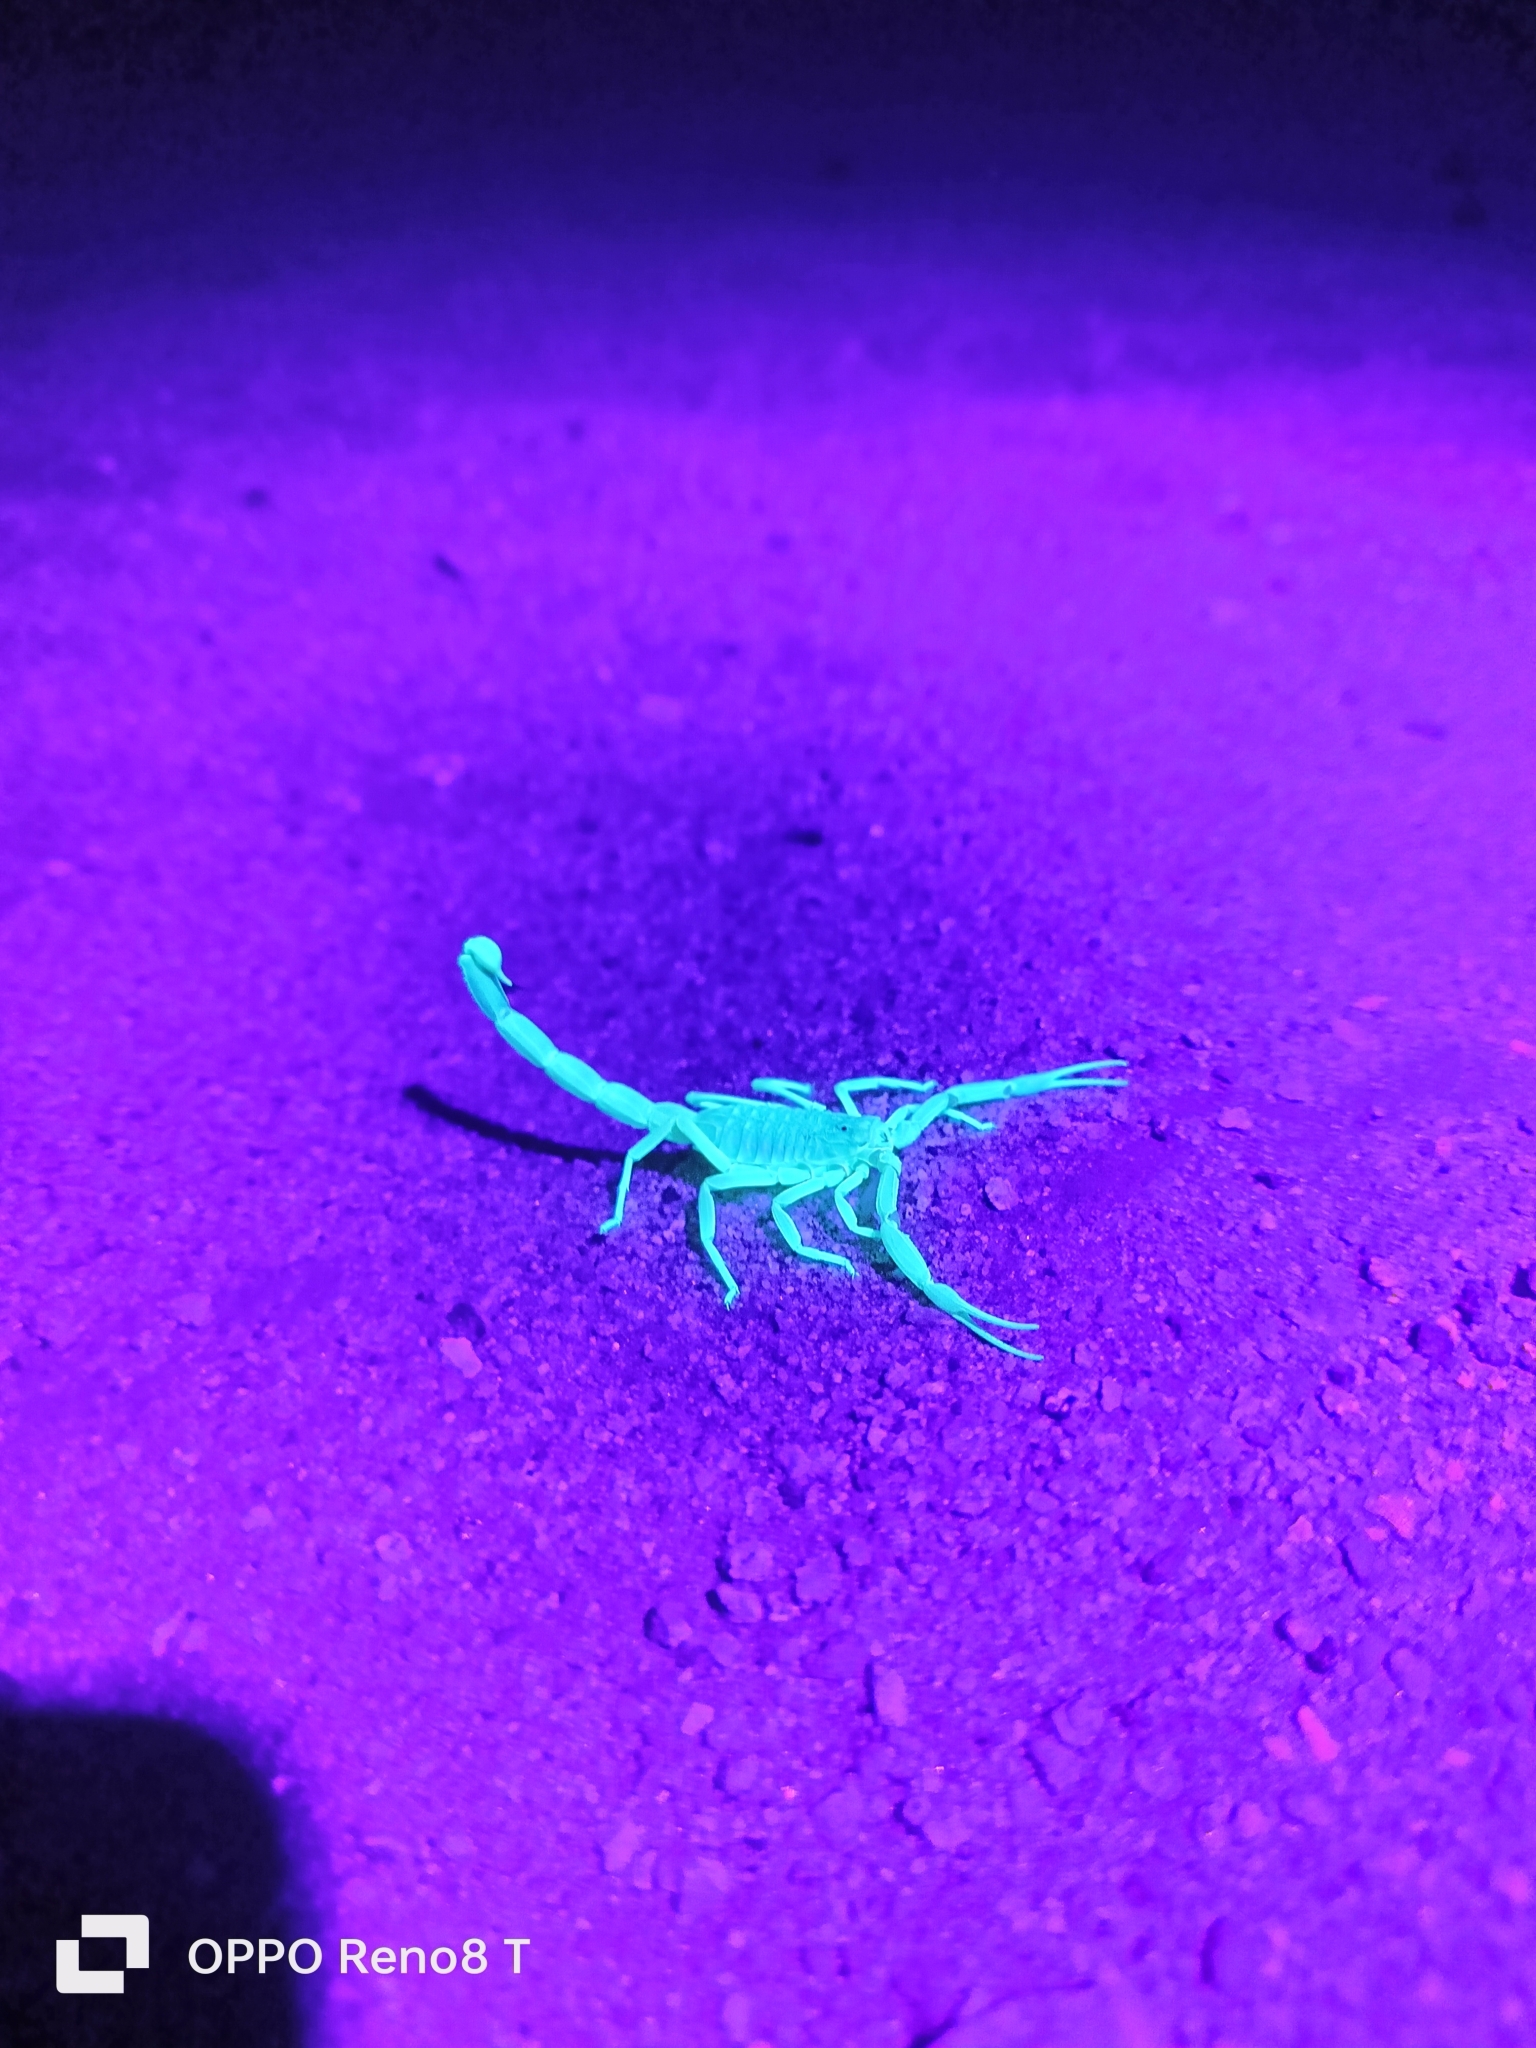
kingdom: Animalia
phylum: Arthropoda
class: Arachnida
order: Scorpiones
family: Buthidae
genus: Leiurus
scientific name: Leiurus hoggarensis
